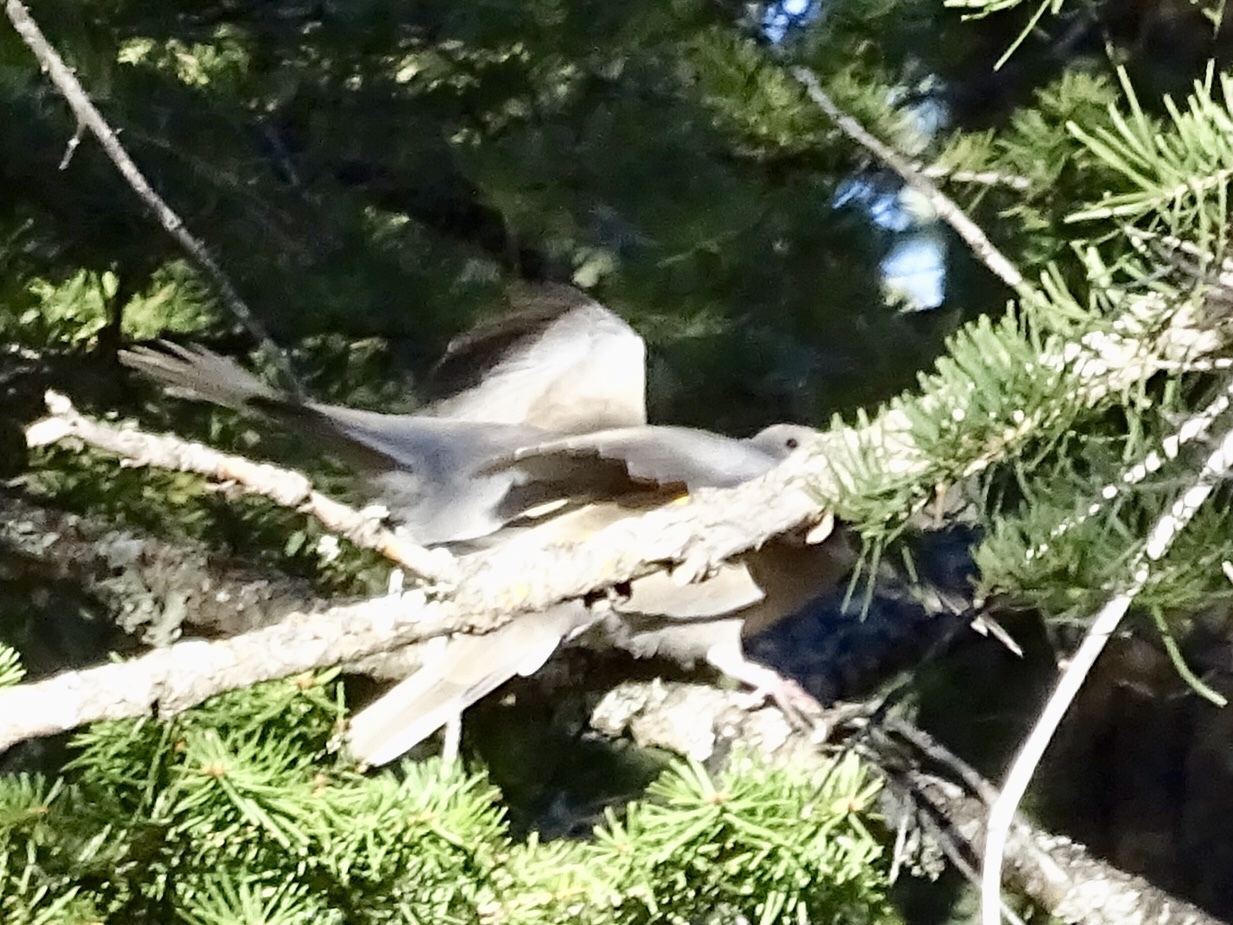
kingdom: Animalia
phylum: Chordata
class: Aves
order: Columbiformes
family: Columbidae
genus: Streptopelia
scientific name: Streptopelia decaocto
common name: Eurasian collared dove
